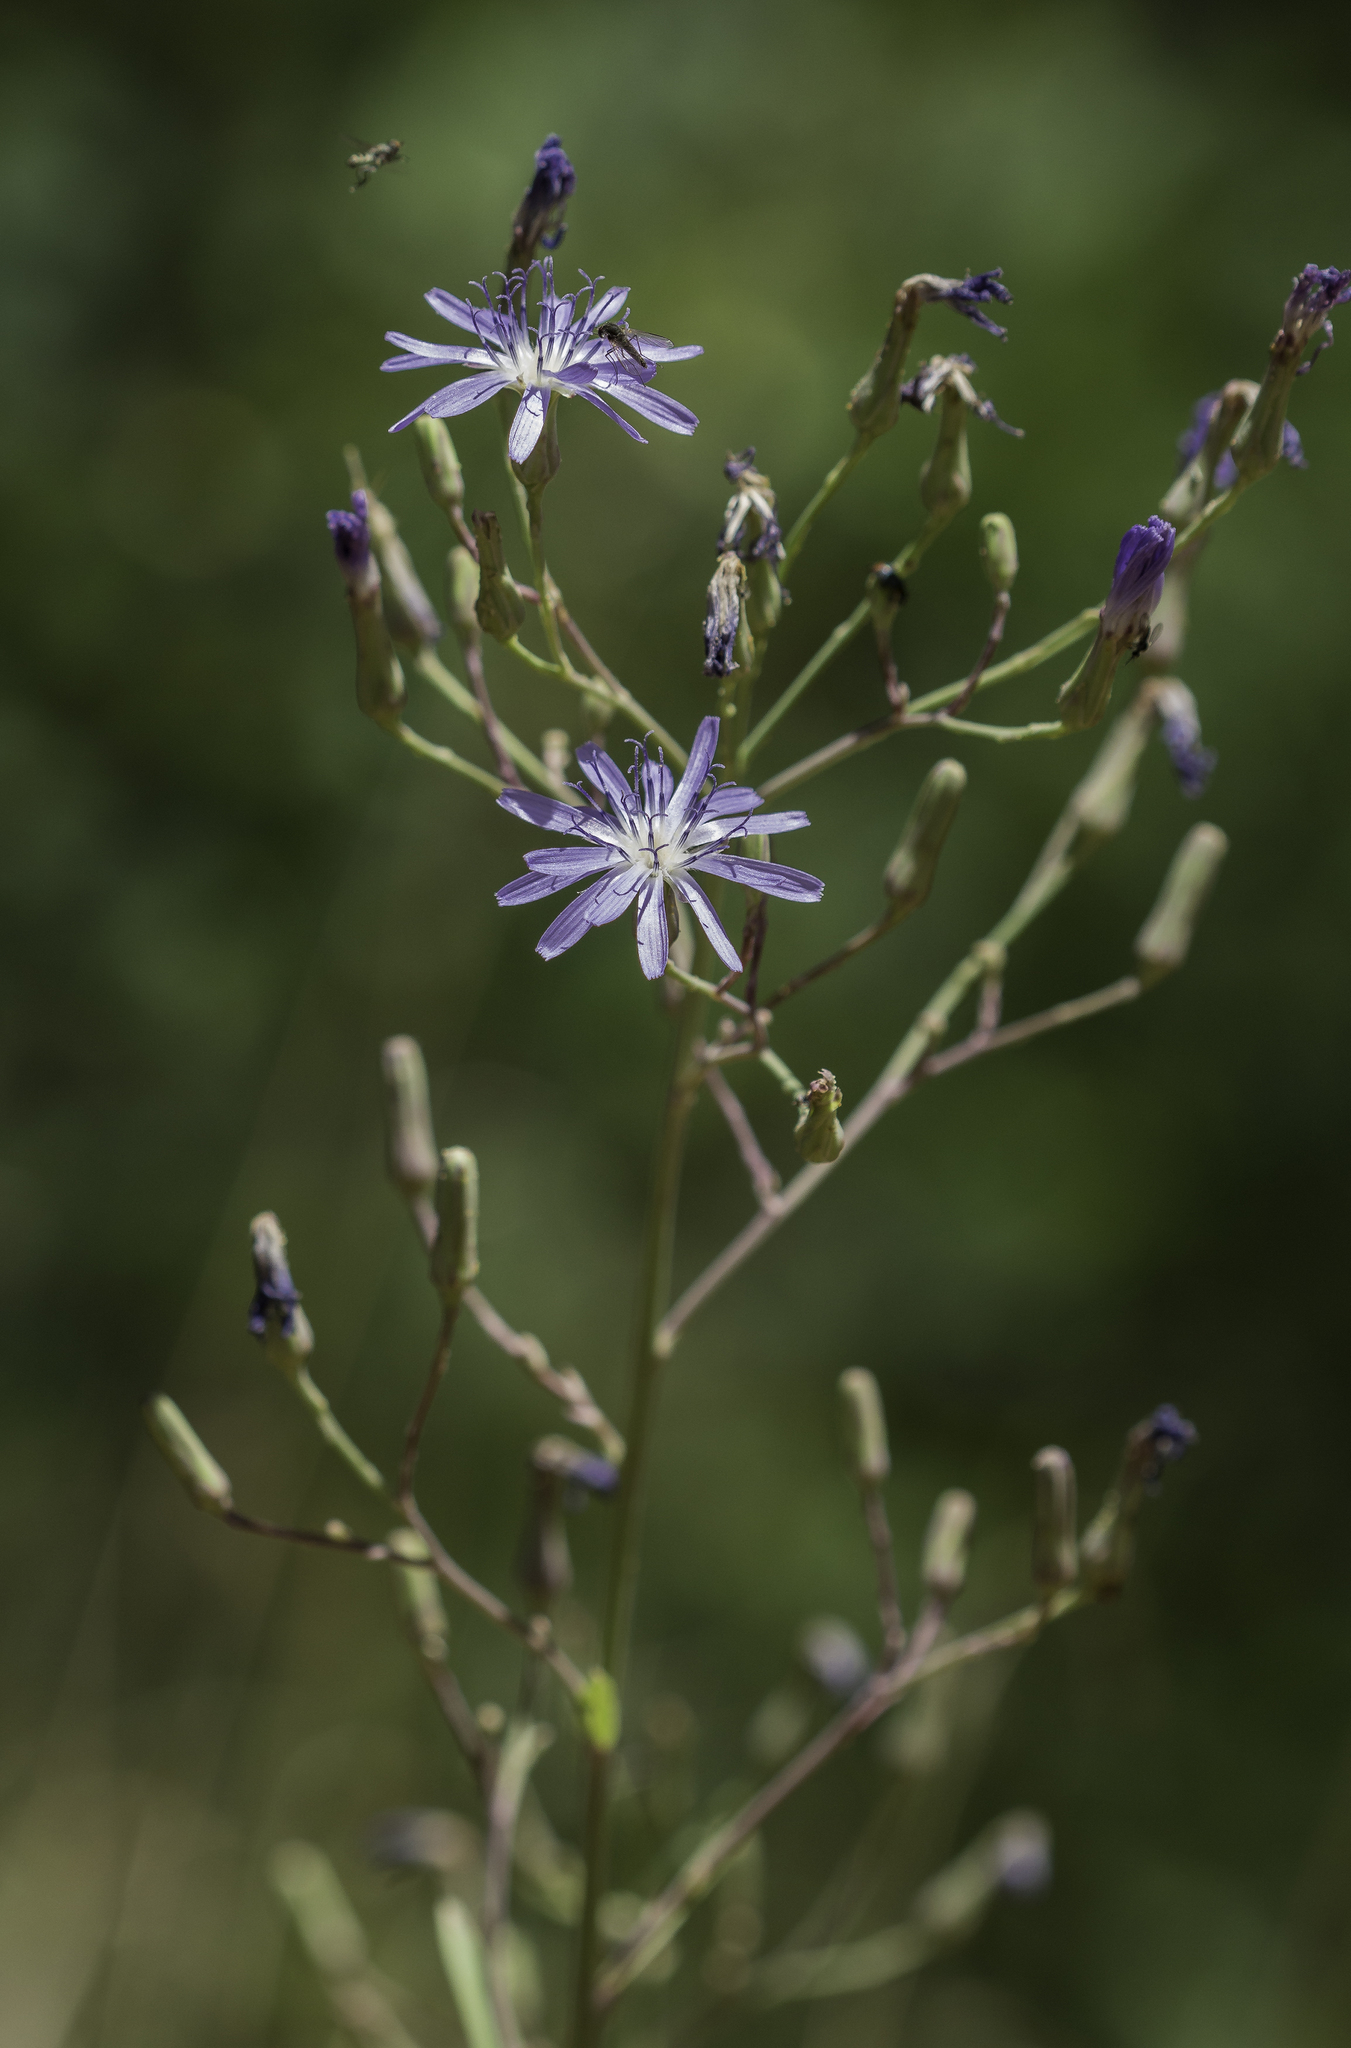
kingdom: Plantae
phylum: Tracheophyta
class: Magnoliopsida
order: Asterales
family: Asteraceae
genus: Lactuca
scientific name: Lactuca tatarica
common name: Blue lettuce
